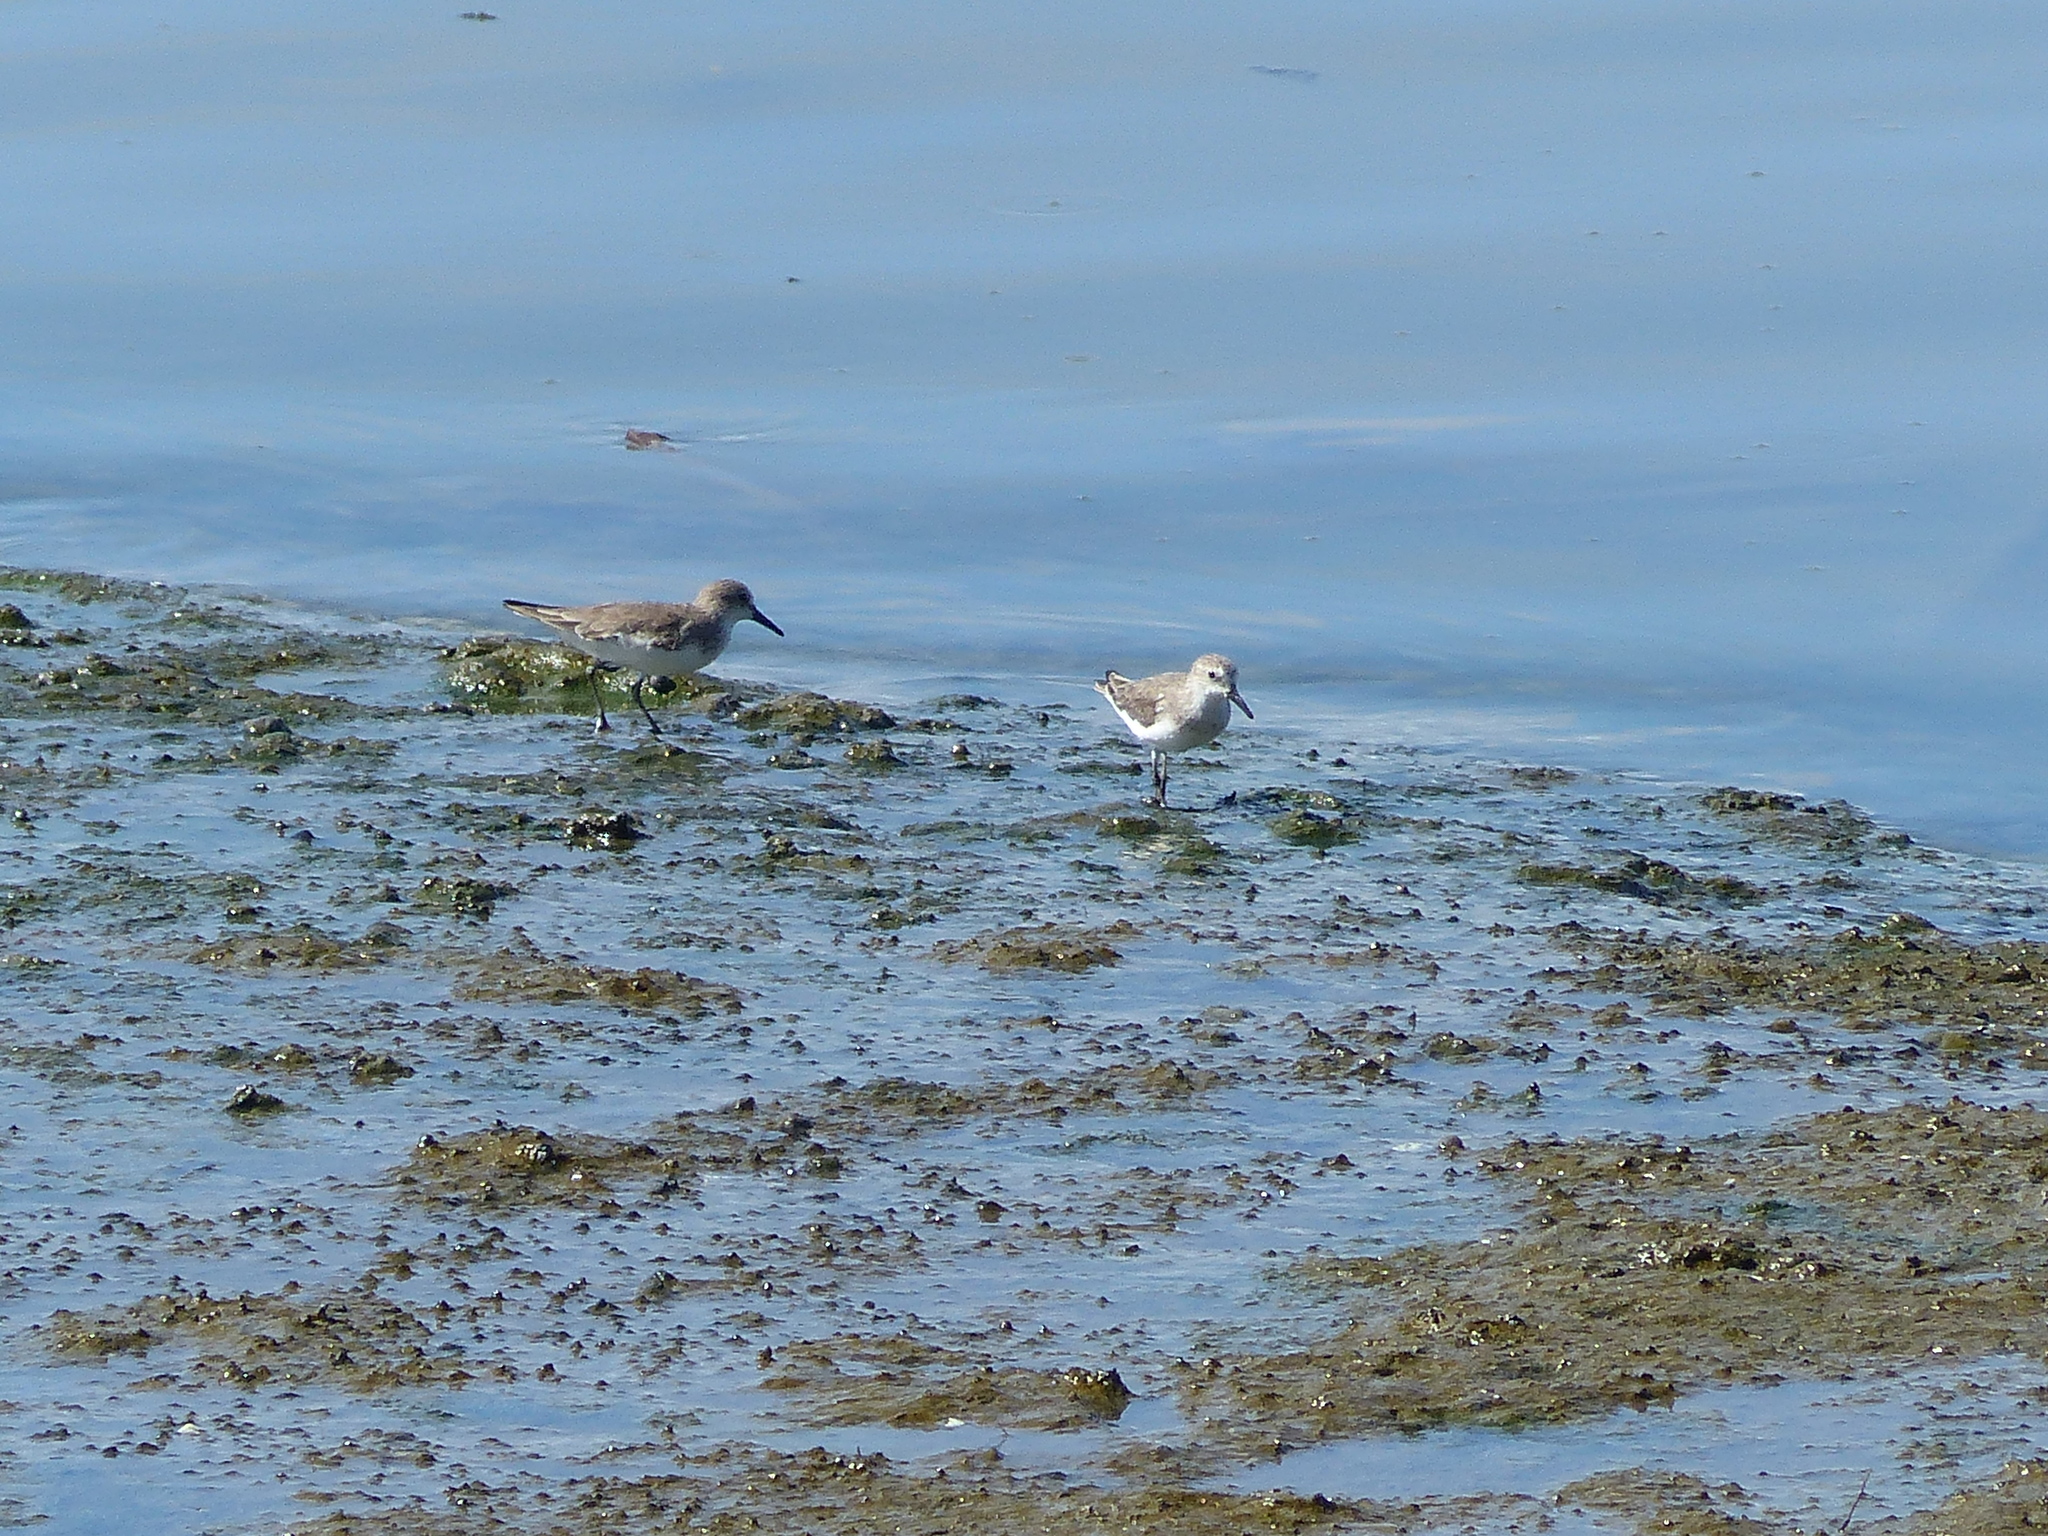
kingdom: Animalia
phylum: Chordata
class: Aves
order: Charadriiformes
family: Scolopacidae
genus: Calidris
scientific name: Calidris pusilla
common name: Semipalmated sandpiper
